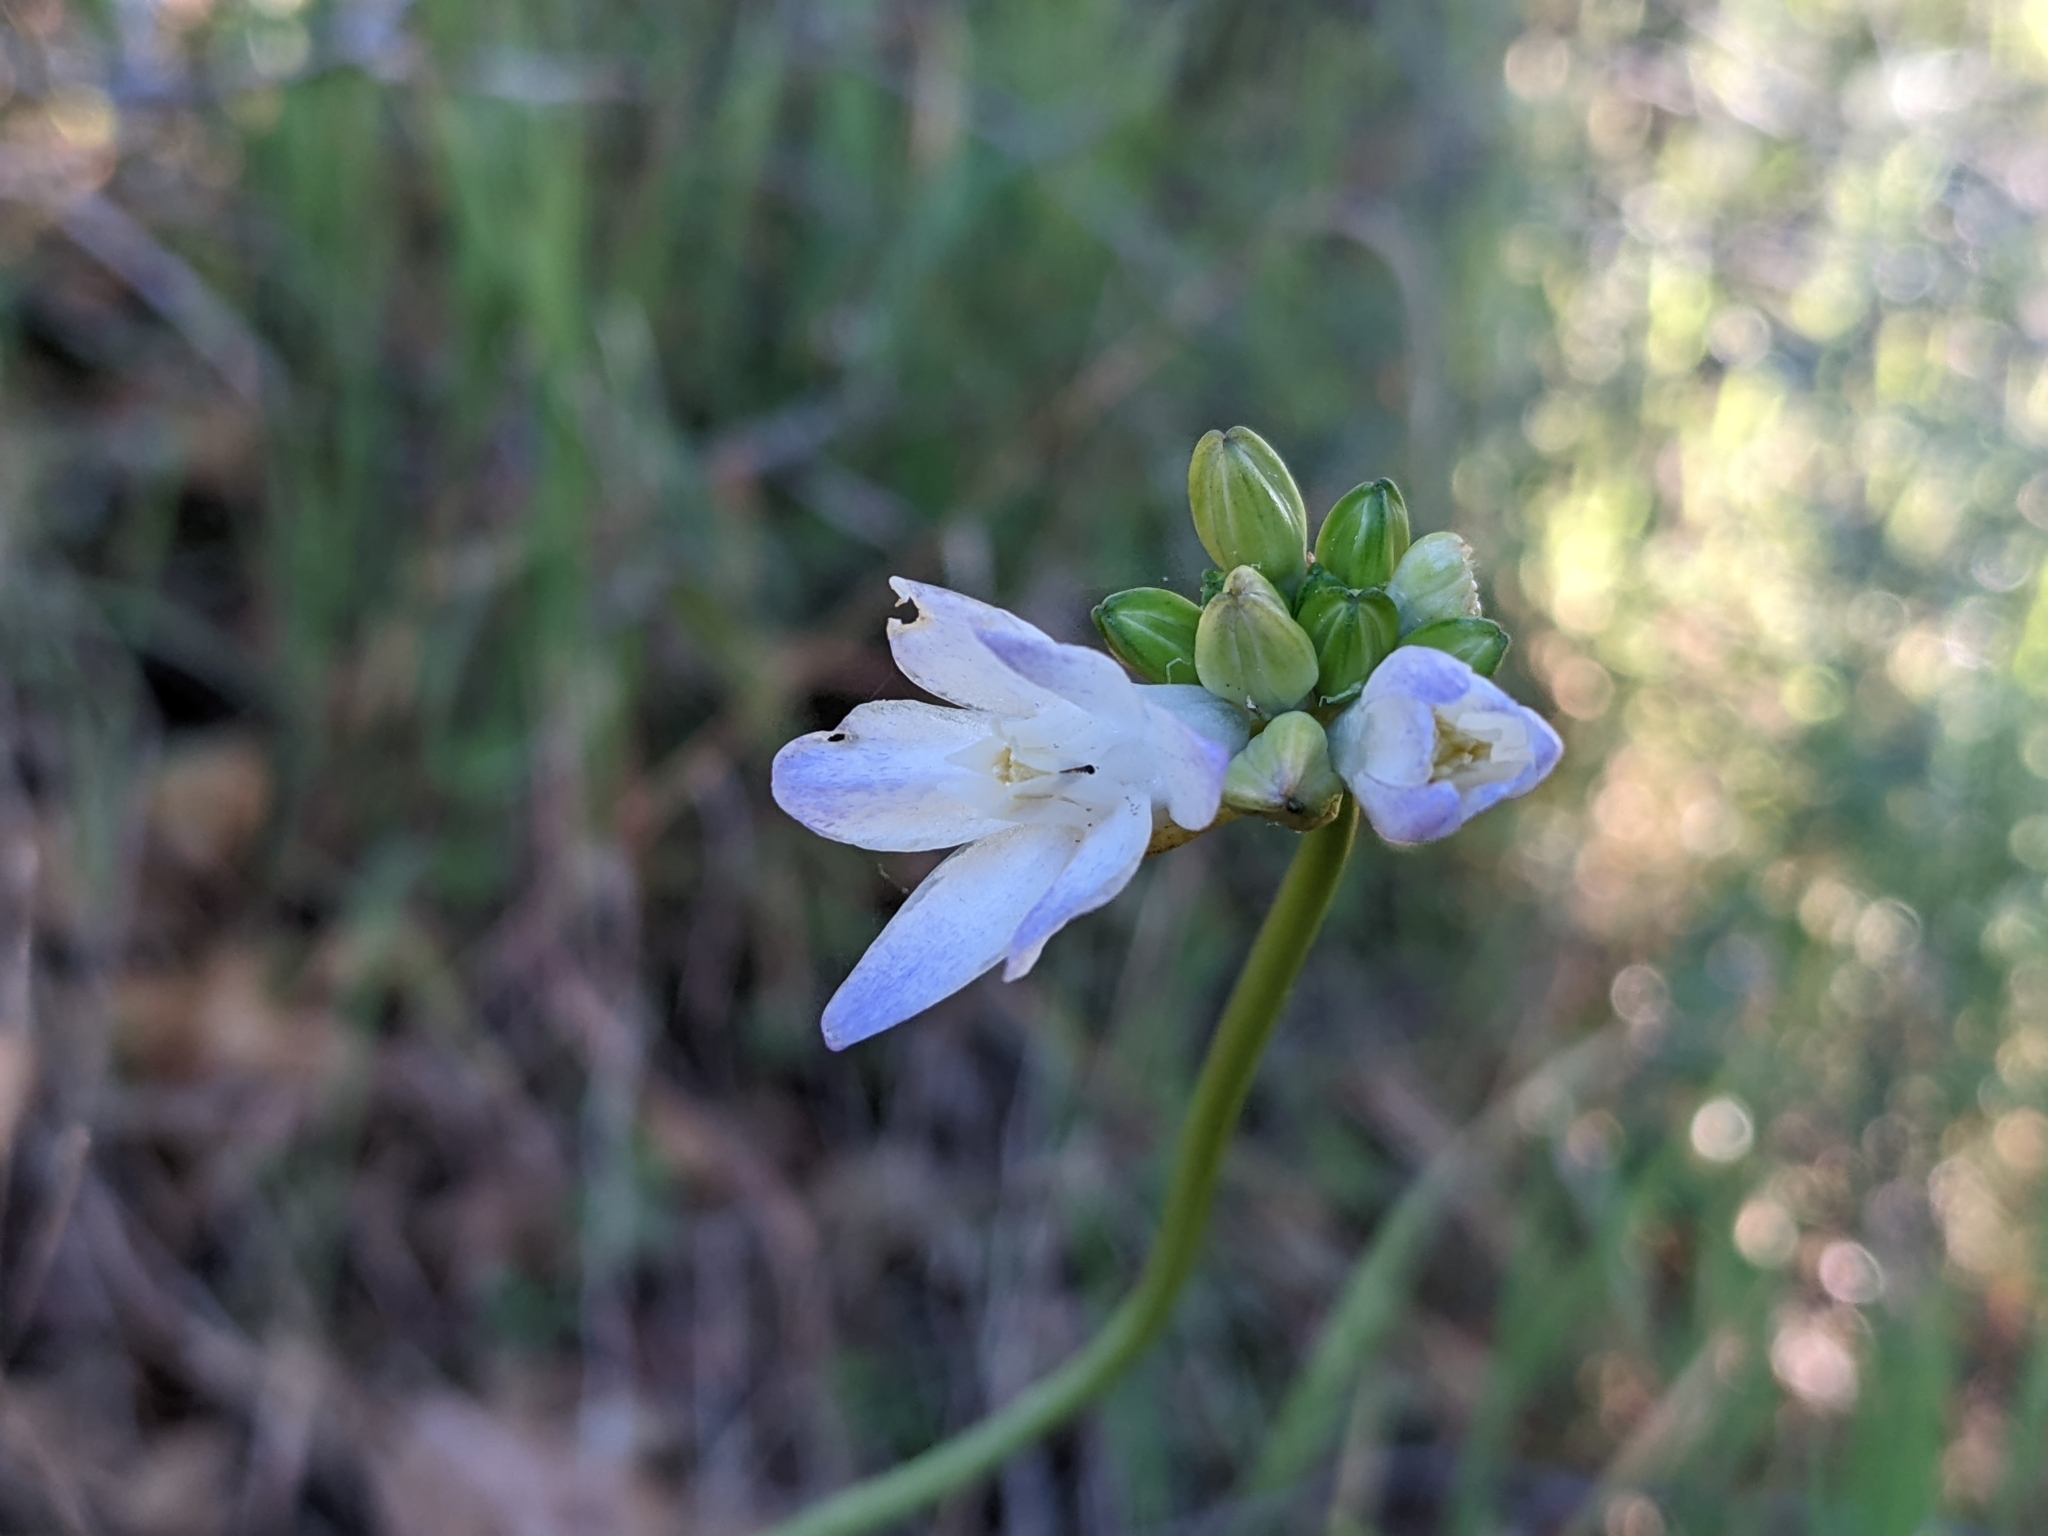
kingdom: Plantae
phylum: Tracheophyta
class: Liliopsida
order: Asparagales
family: Asparagaceae
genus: Dipterostemon
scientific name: Dipterostemon capitatus
